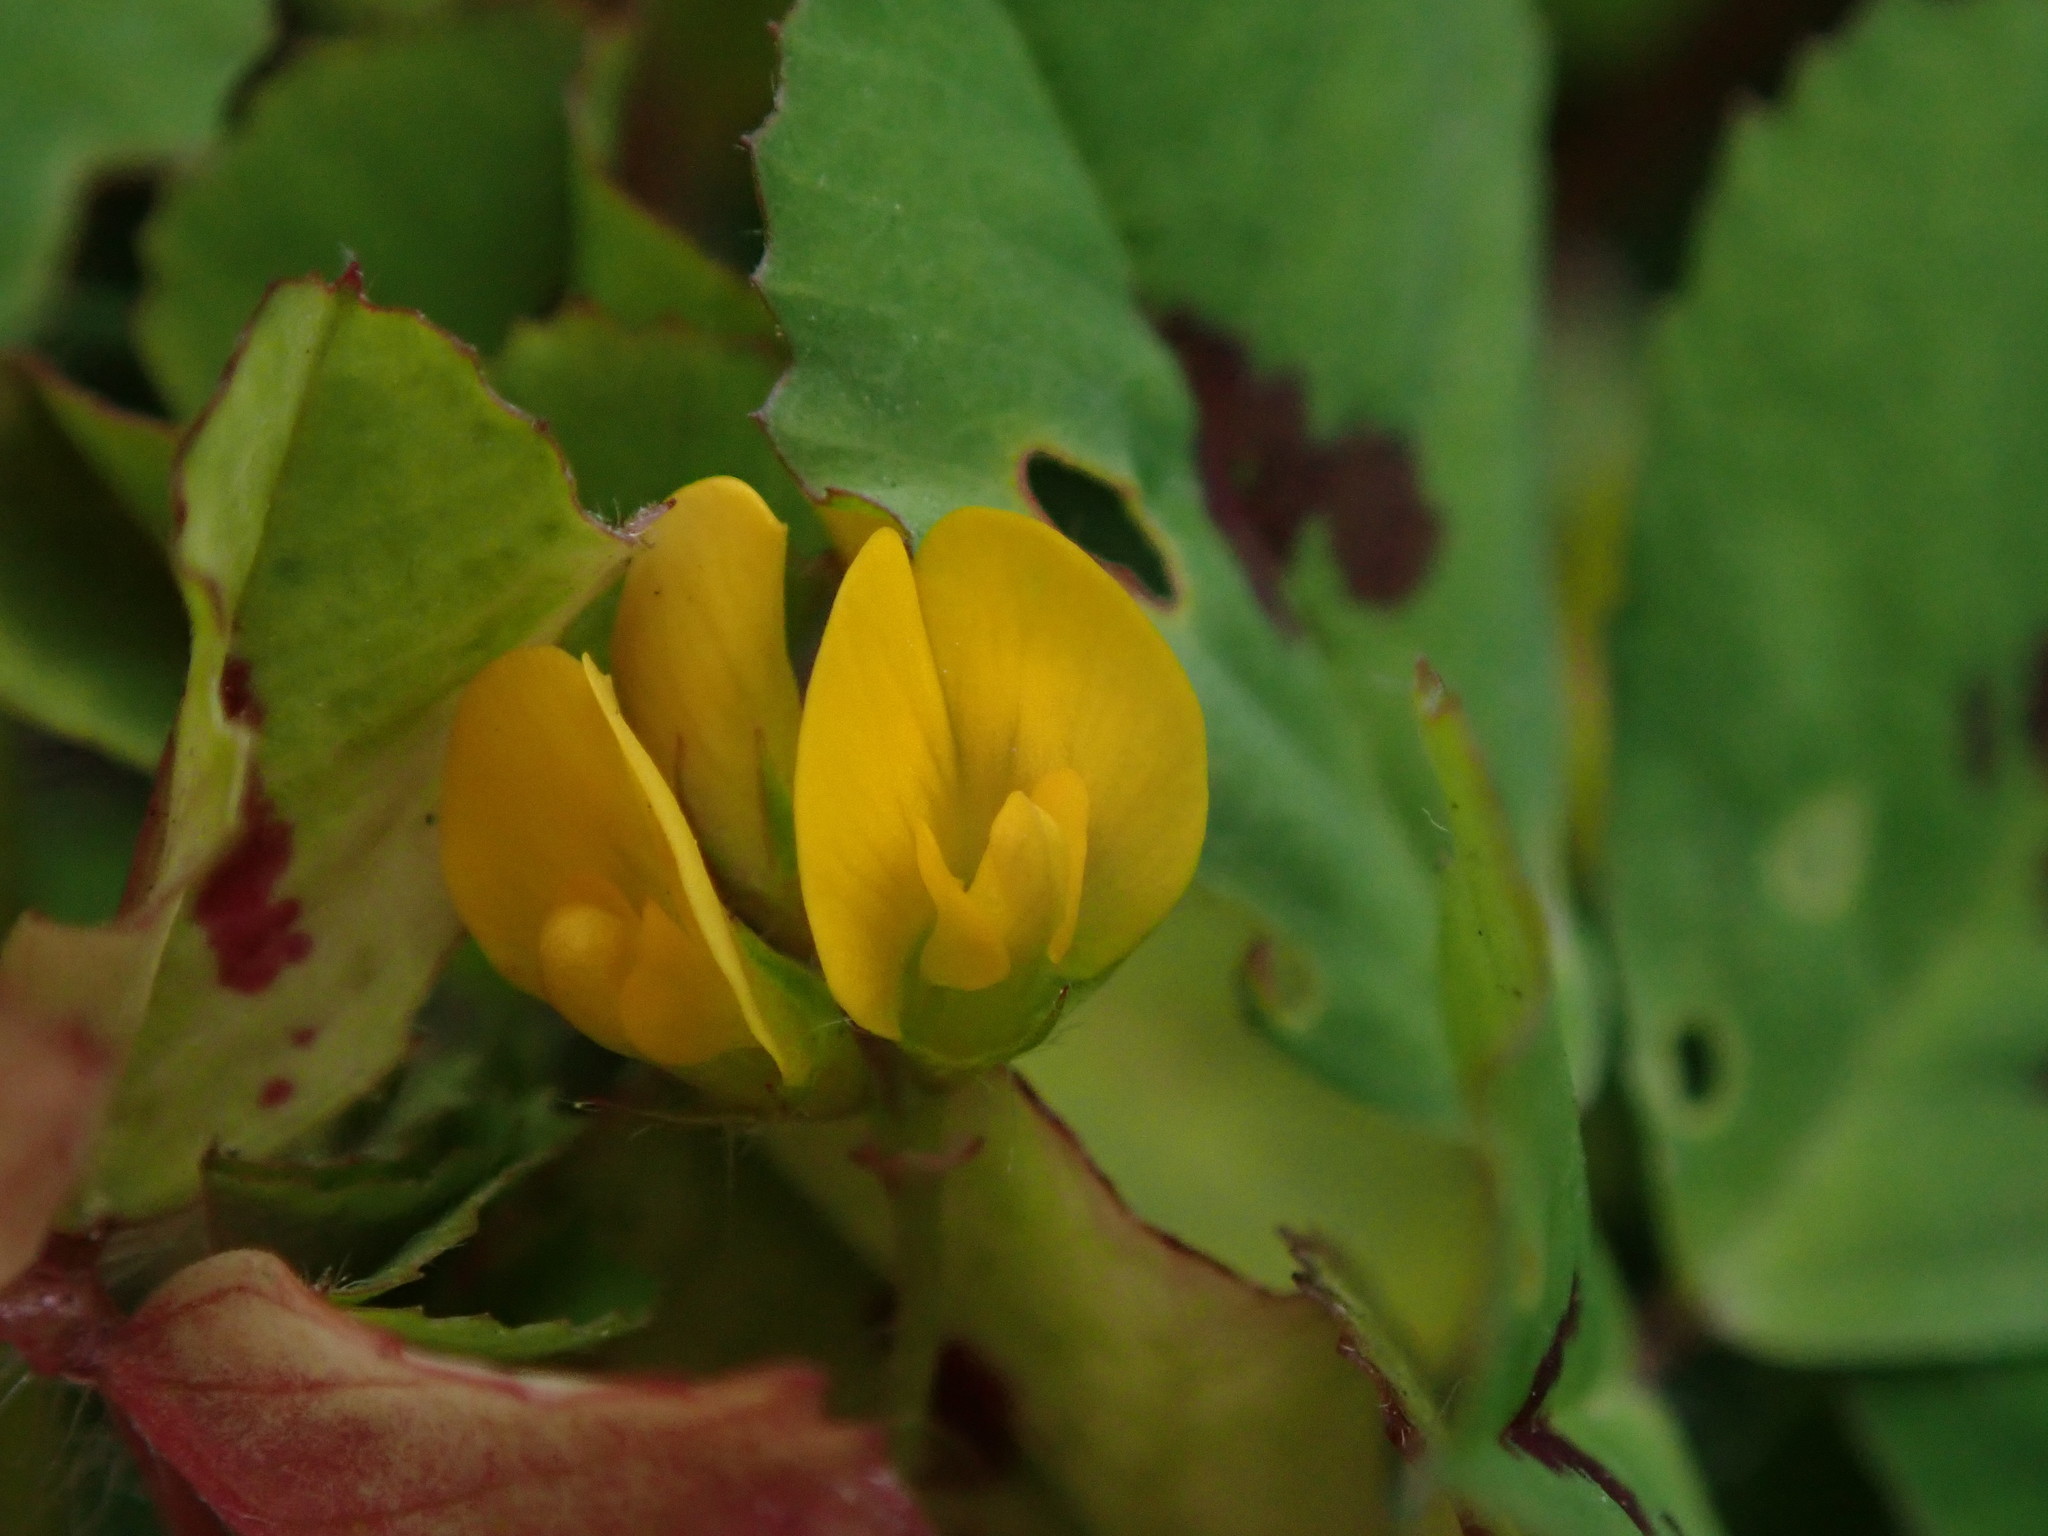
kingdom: Plantae
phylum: Tracheophyta
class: Magnoliopsida
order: Fabales
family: Fabaceae
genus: Medicago
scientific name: Medicago arabica
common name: Spotted medick
